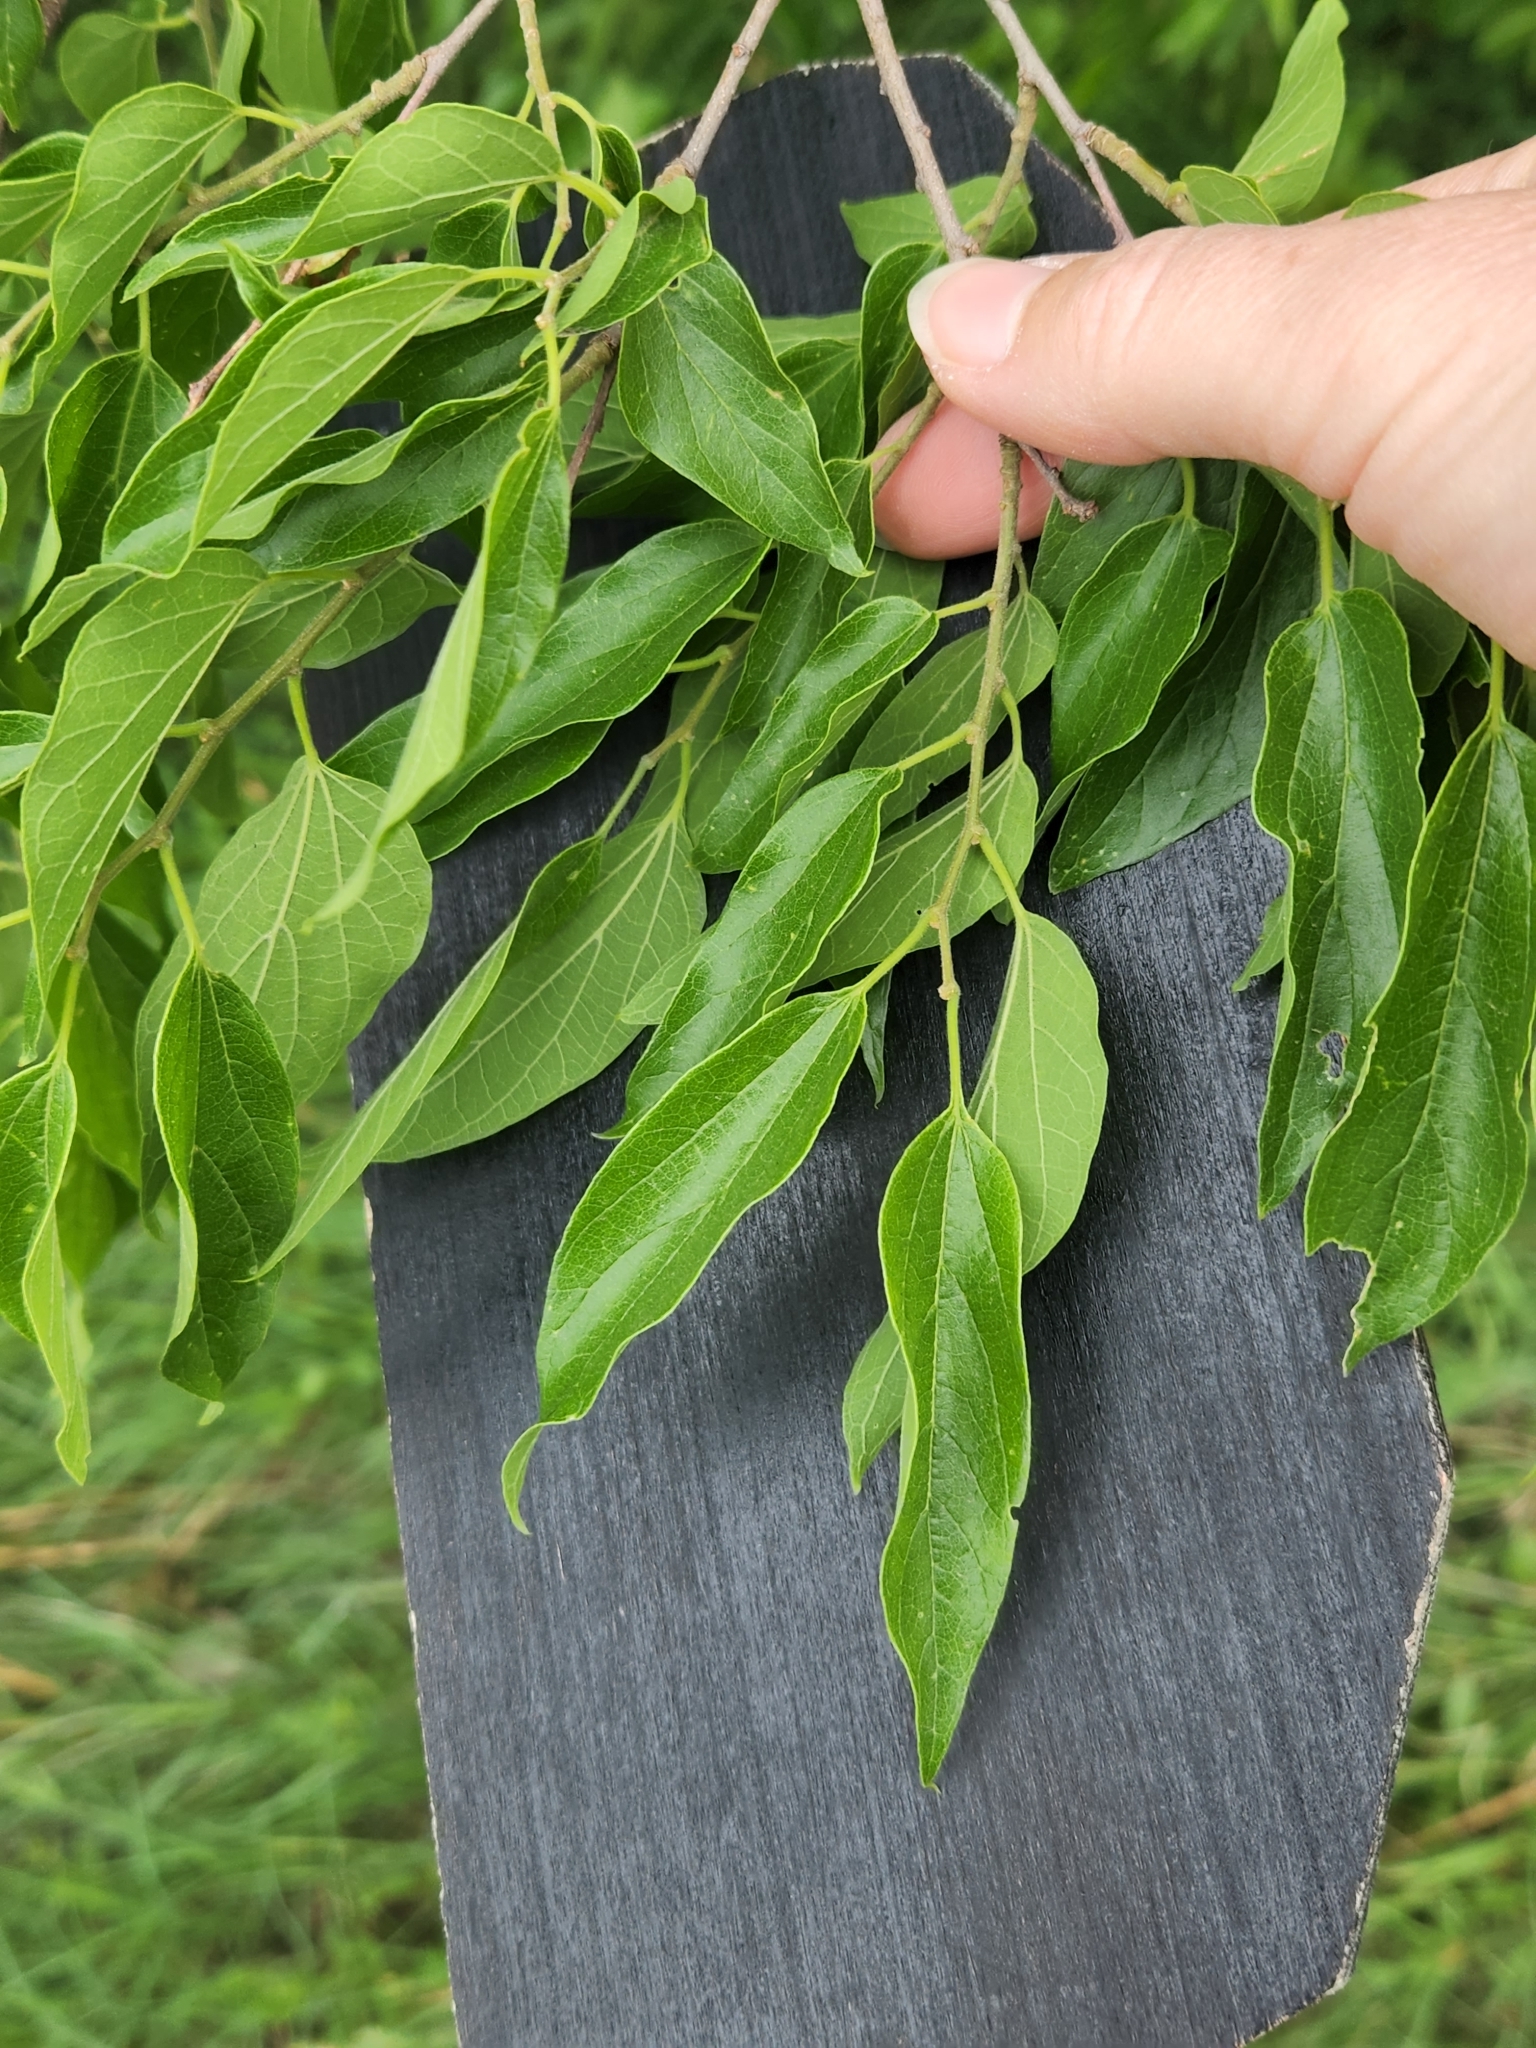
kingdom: Plantae
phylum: Tracheophyta
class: Magnoliopsida
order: Rosales
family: Cannabaceae
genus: Celtis
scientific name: Celtis laevigata
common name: Sugarberry
